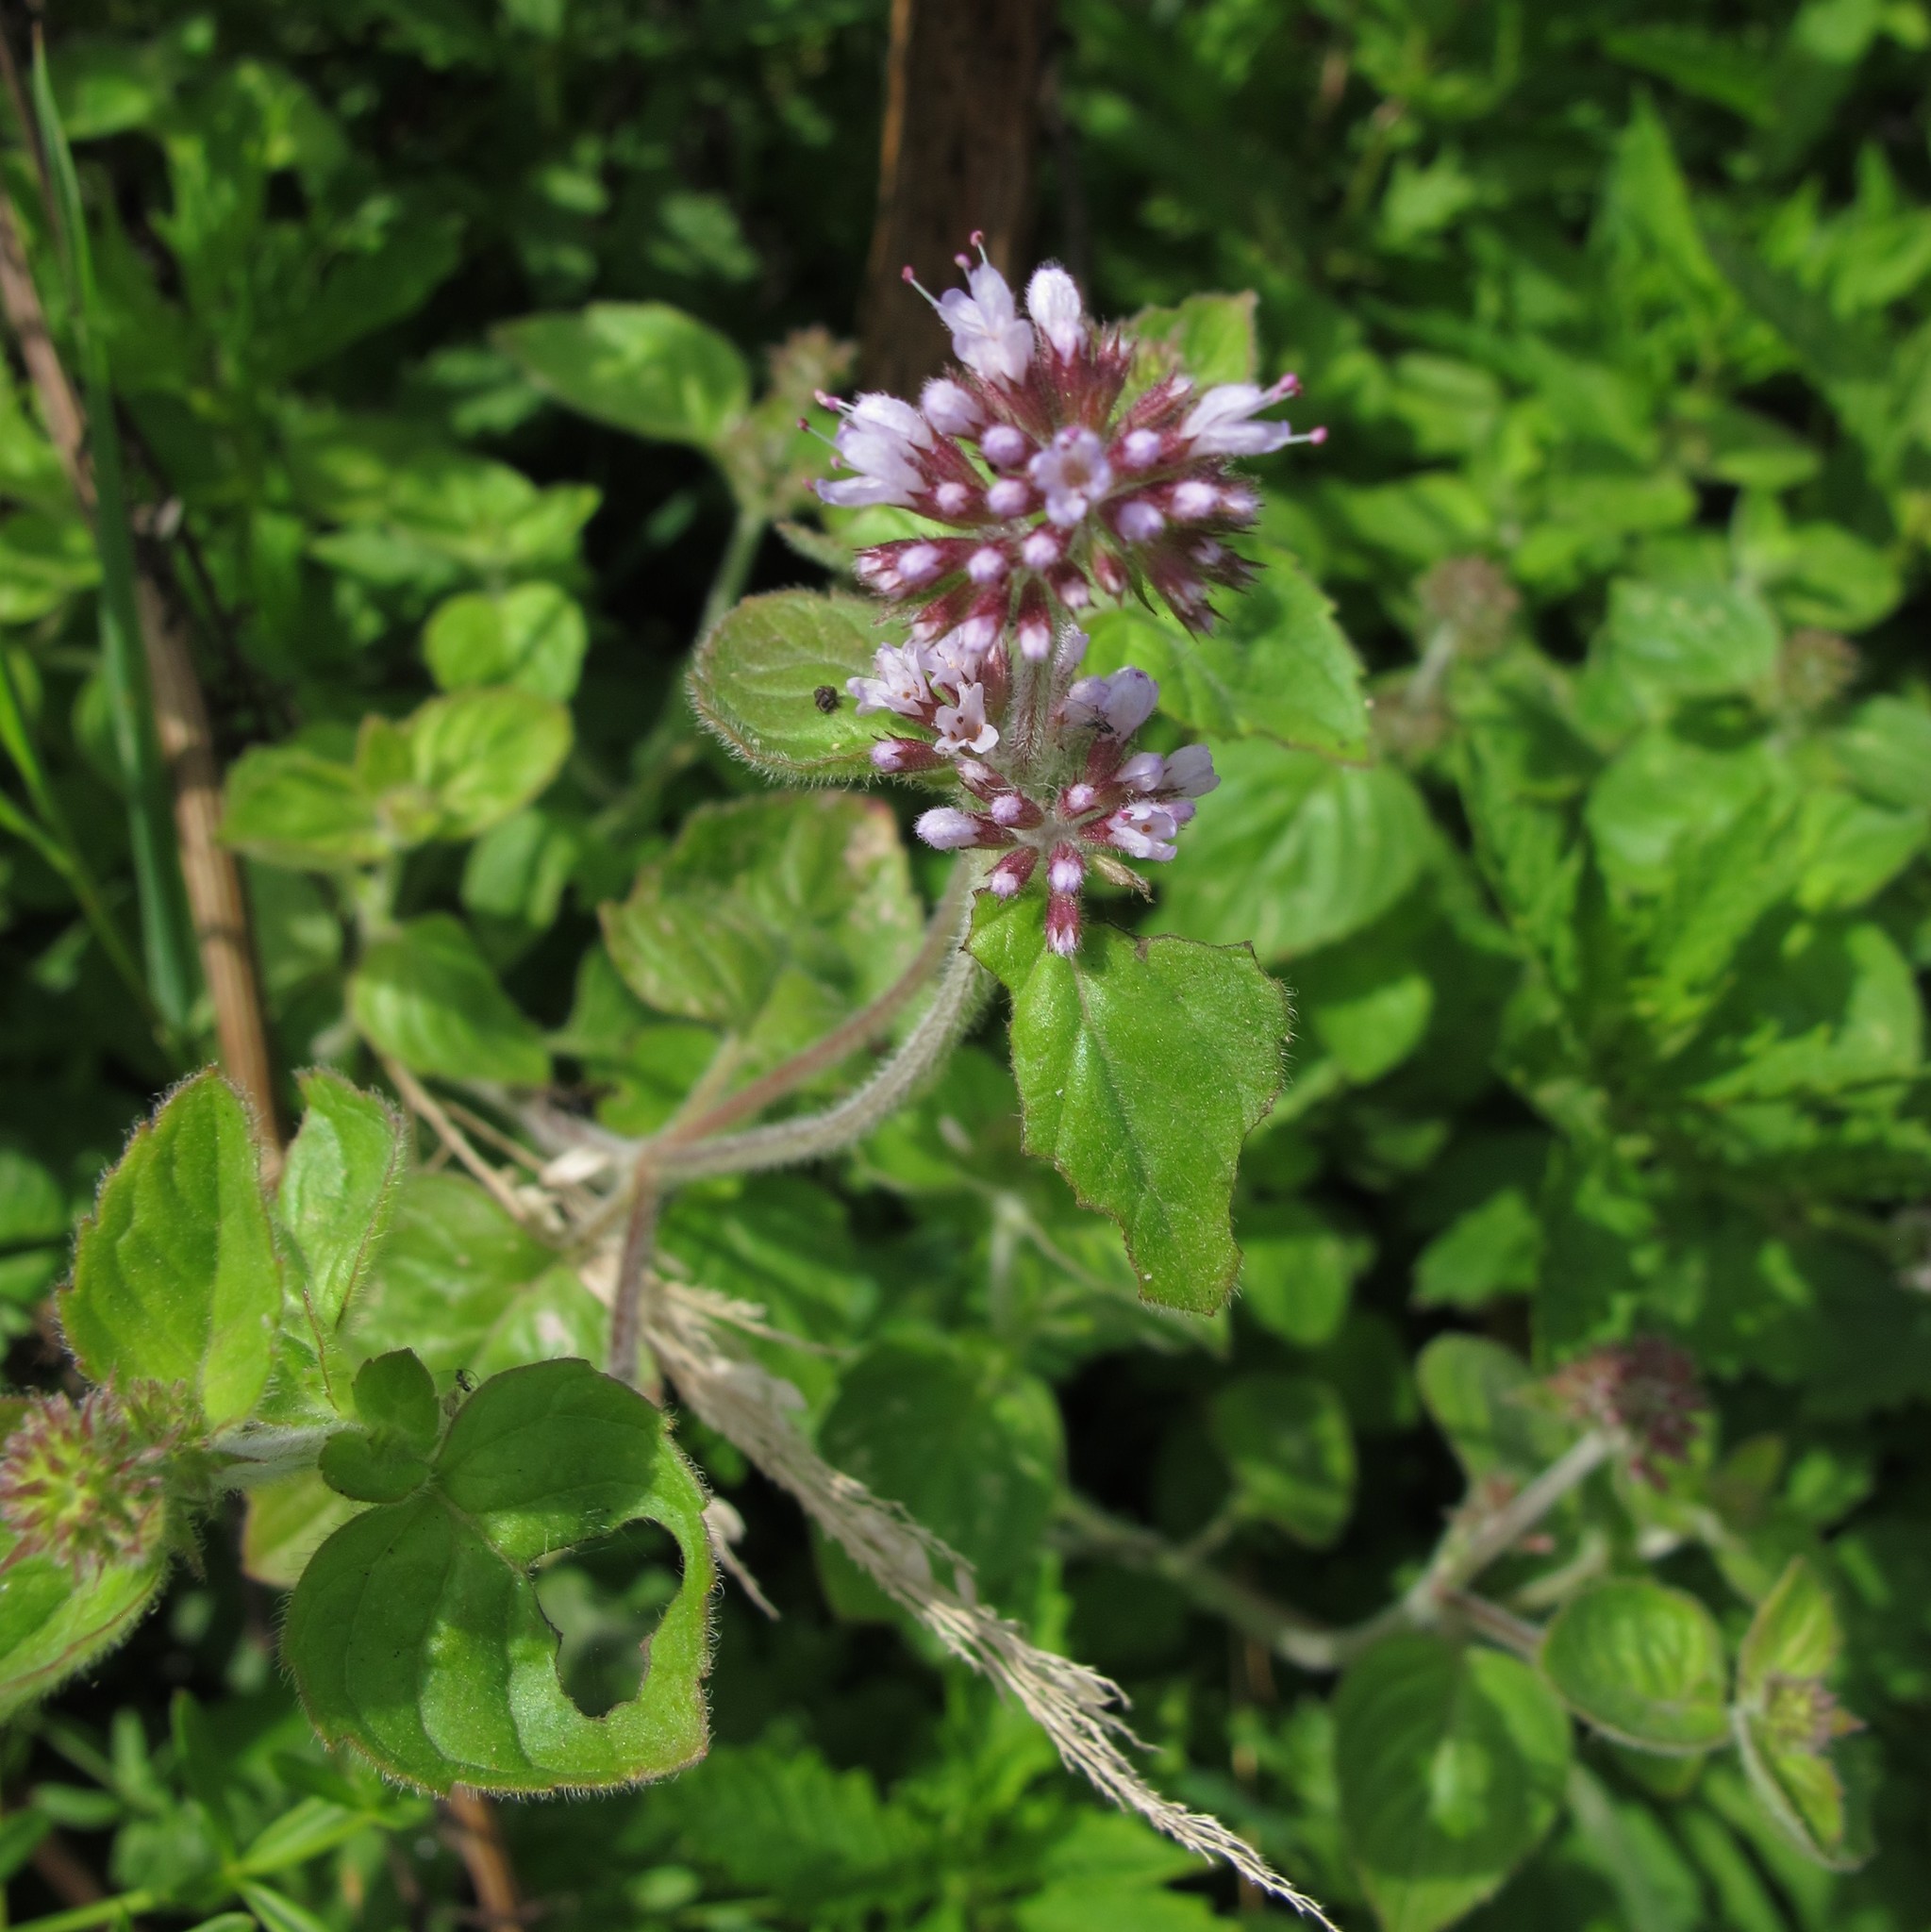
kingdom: Plantae
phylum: Tracheophyta
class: Magnoliopsida
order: Lamiales
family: Lamiaceae
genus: Mentha
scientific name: Mentha aquatica
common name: Water mint
